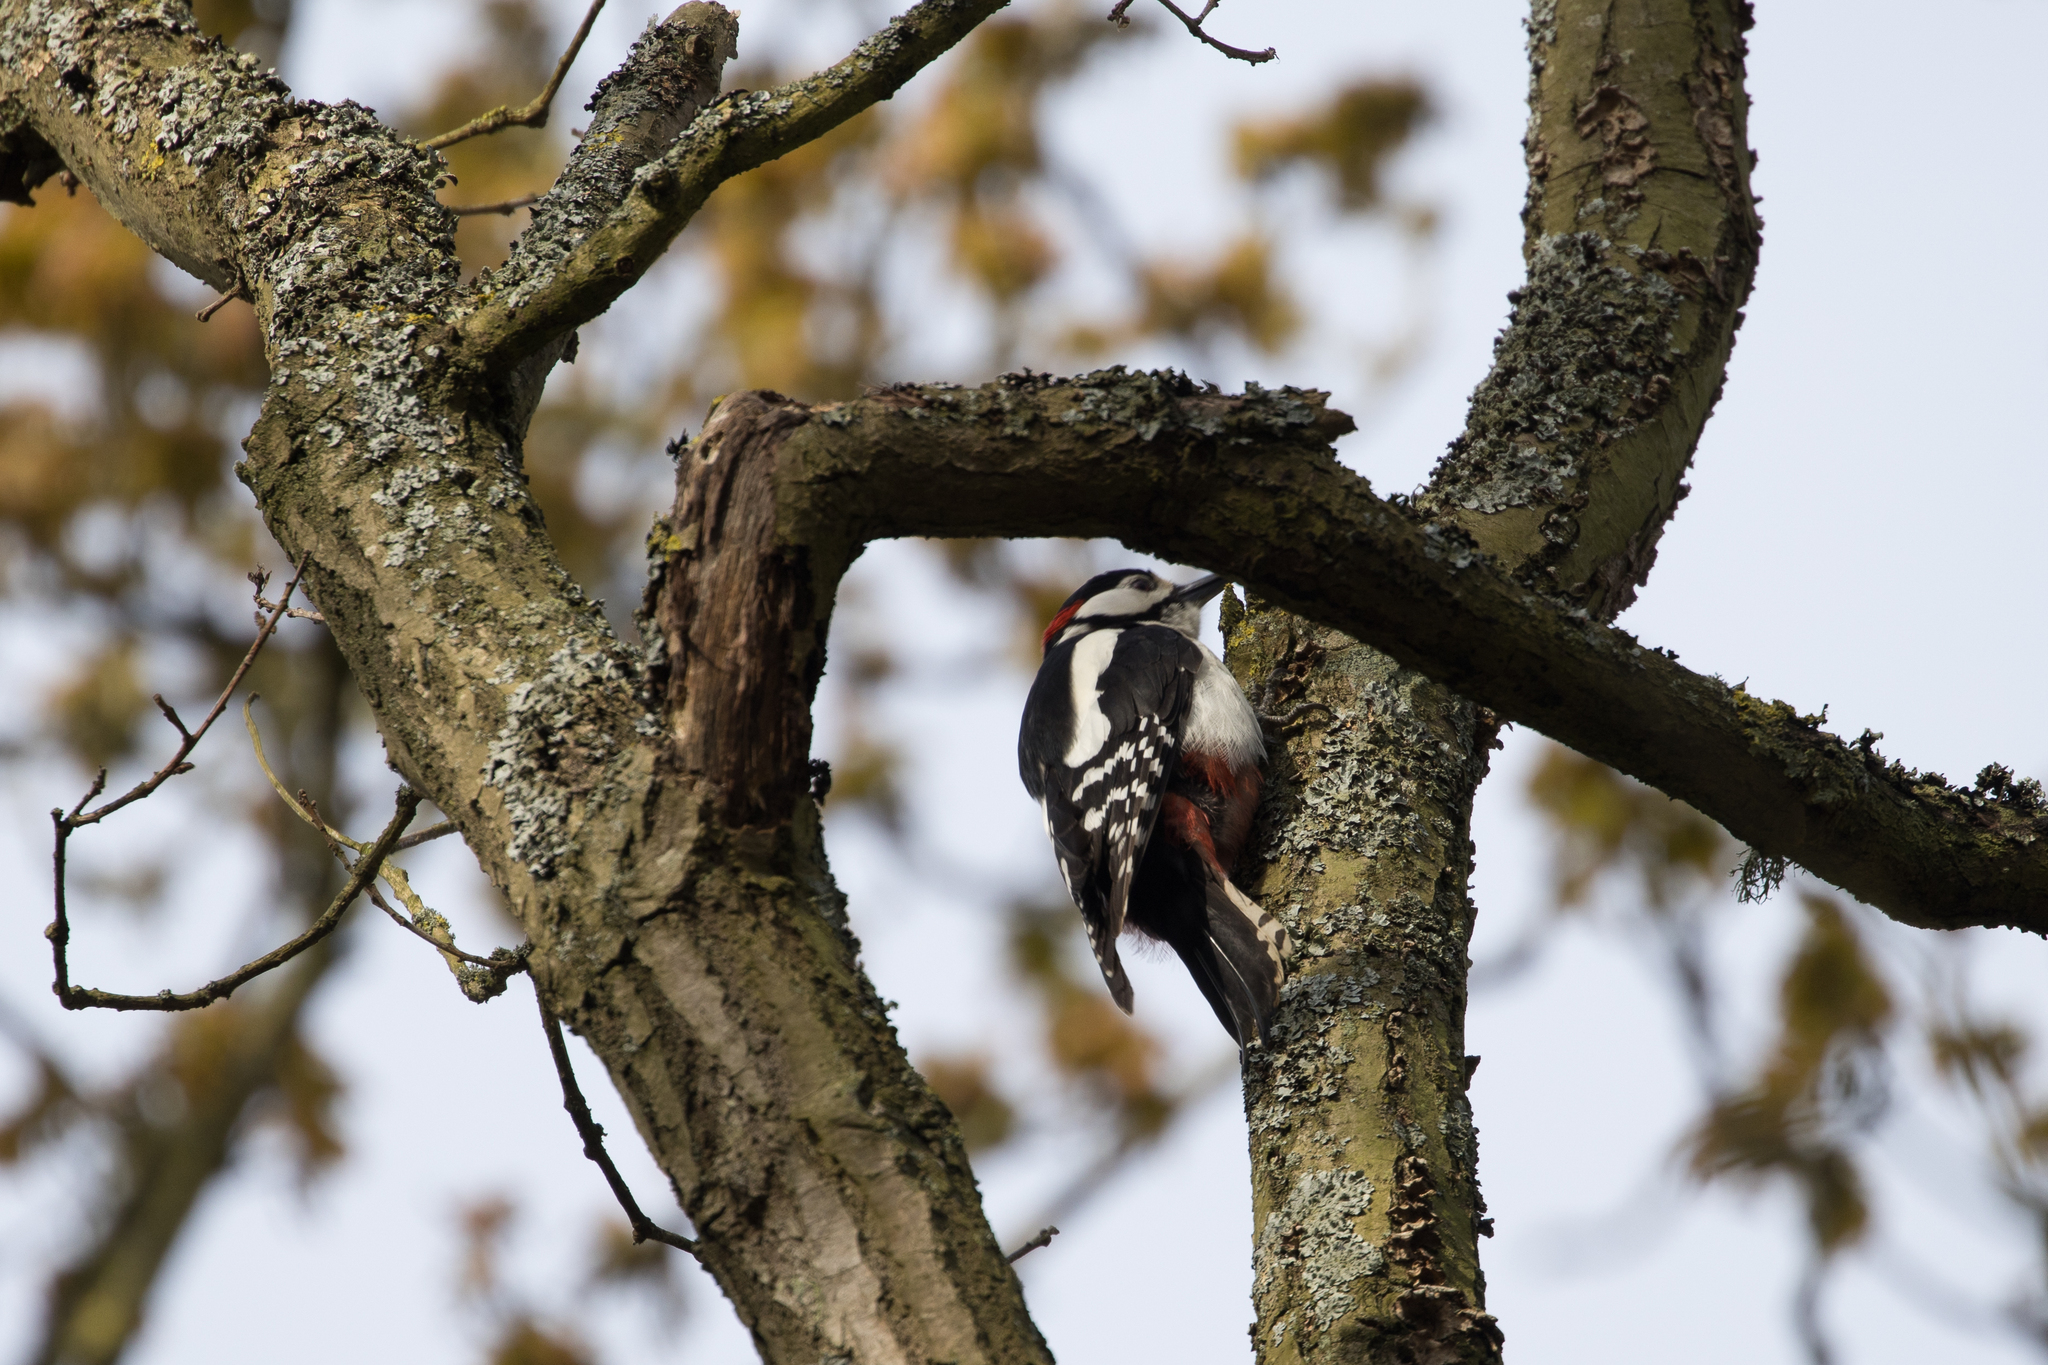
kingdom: Animalia
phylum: Chordata
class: Aves
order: Piciformes
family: Picidae
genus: Dendrocopos
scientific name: Dendrocopos major
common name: Great spotted woodpecker
